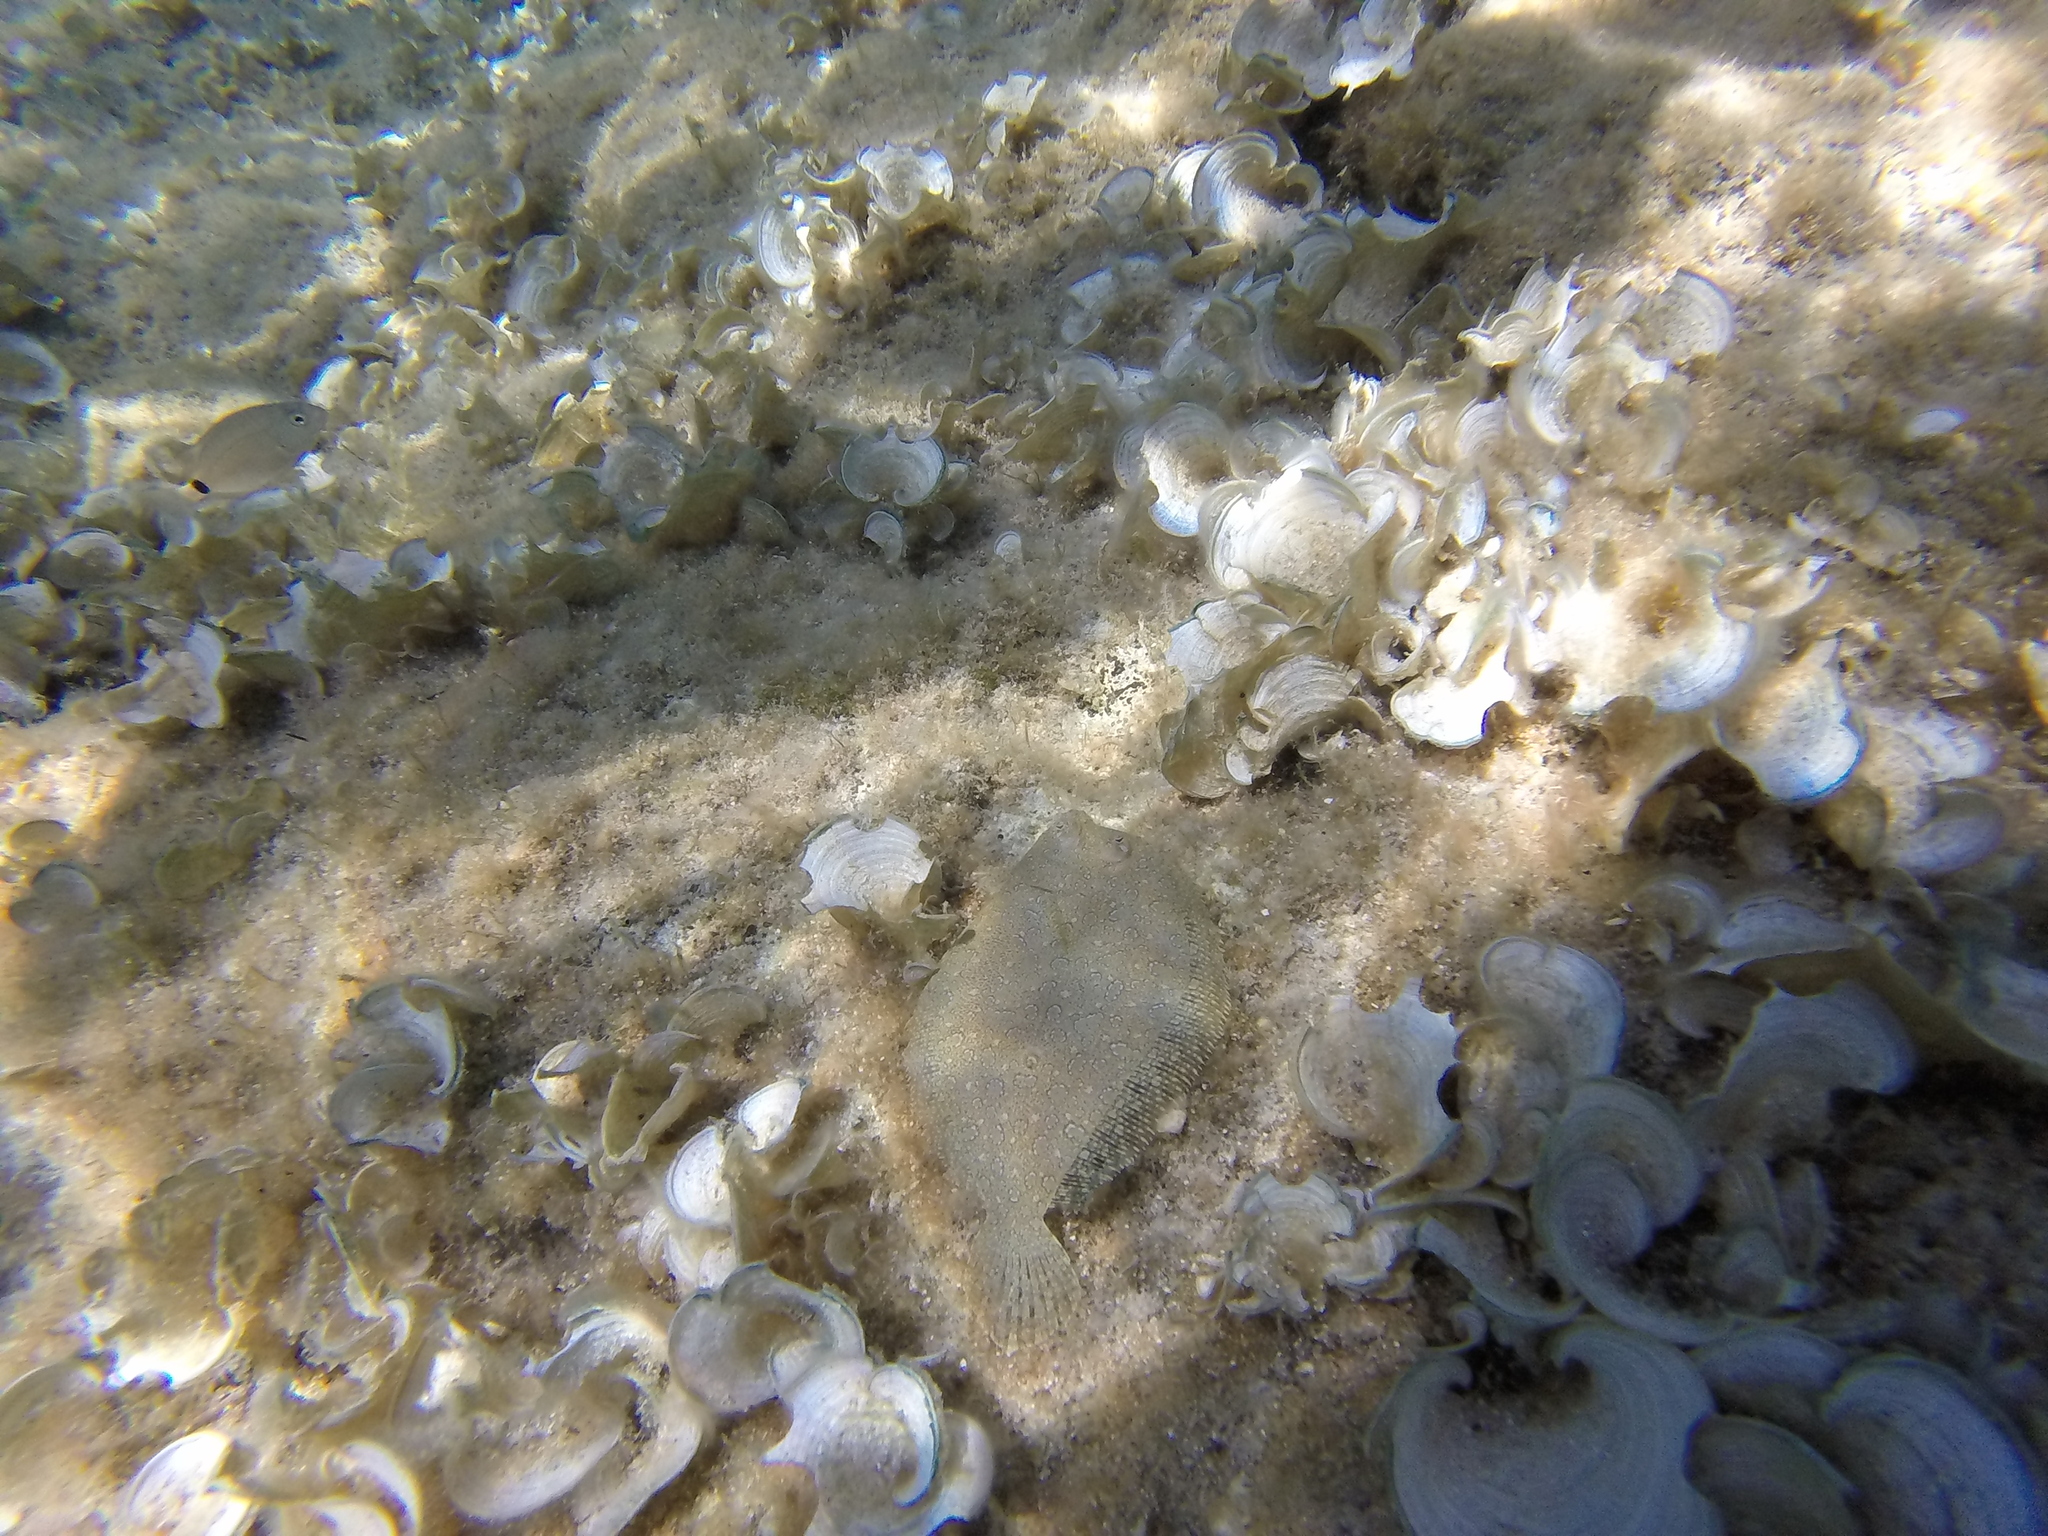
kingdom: Animalia
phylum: Chordata
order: Pleuronectiformes
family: Bothidae
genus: Bothus
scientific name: Bothus podas
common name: Wide-eyed flounder
